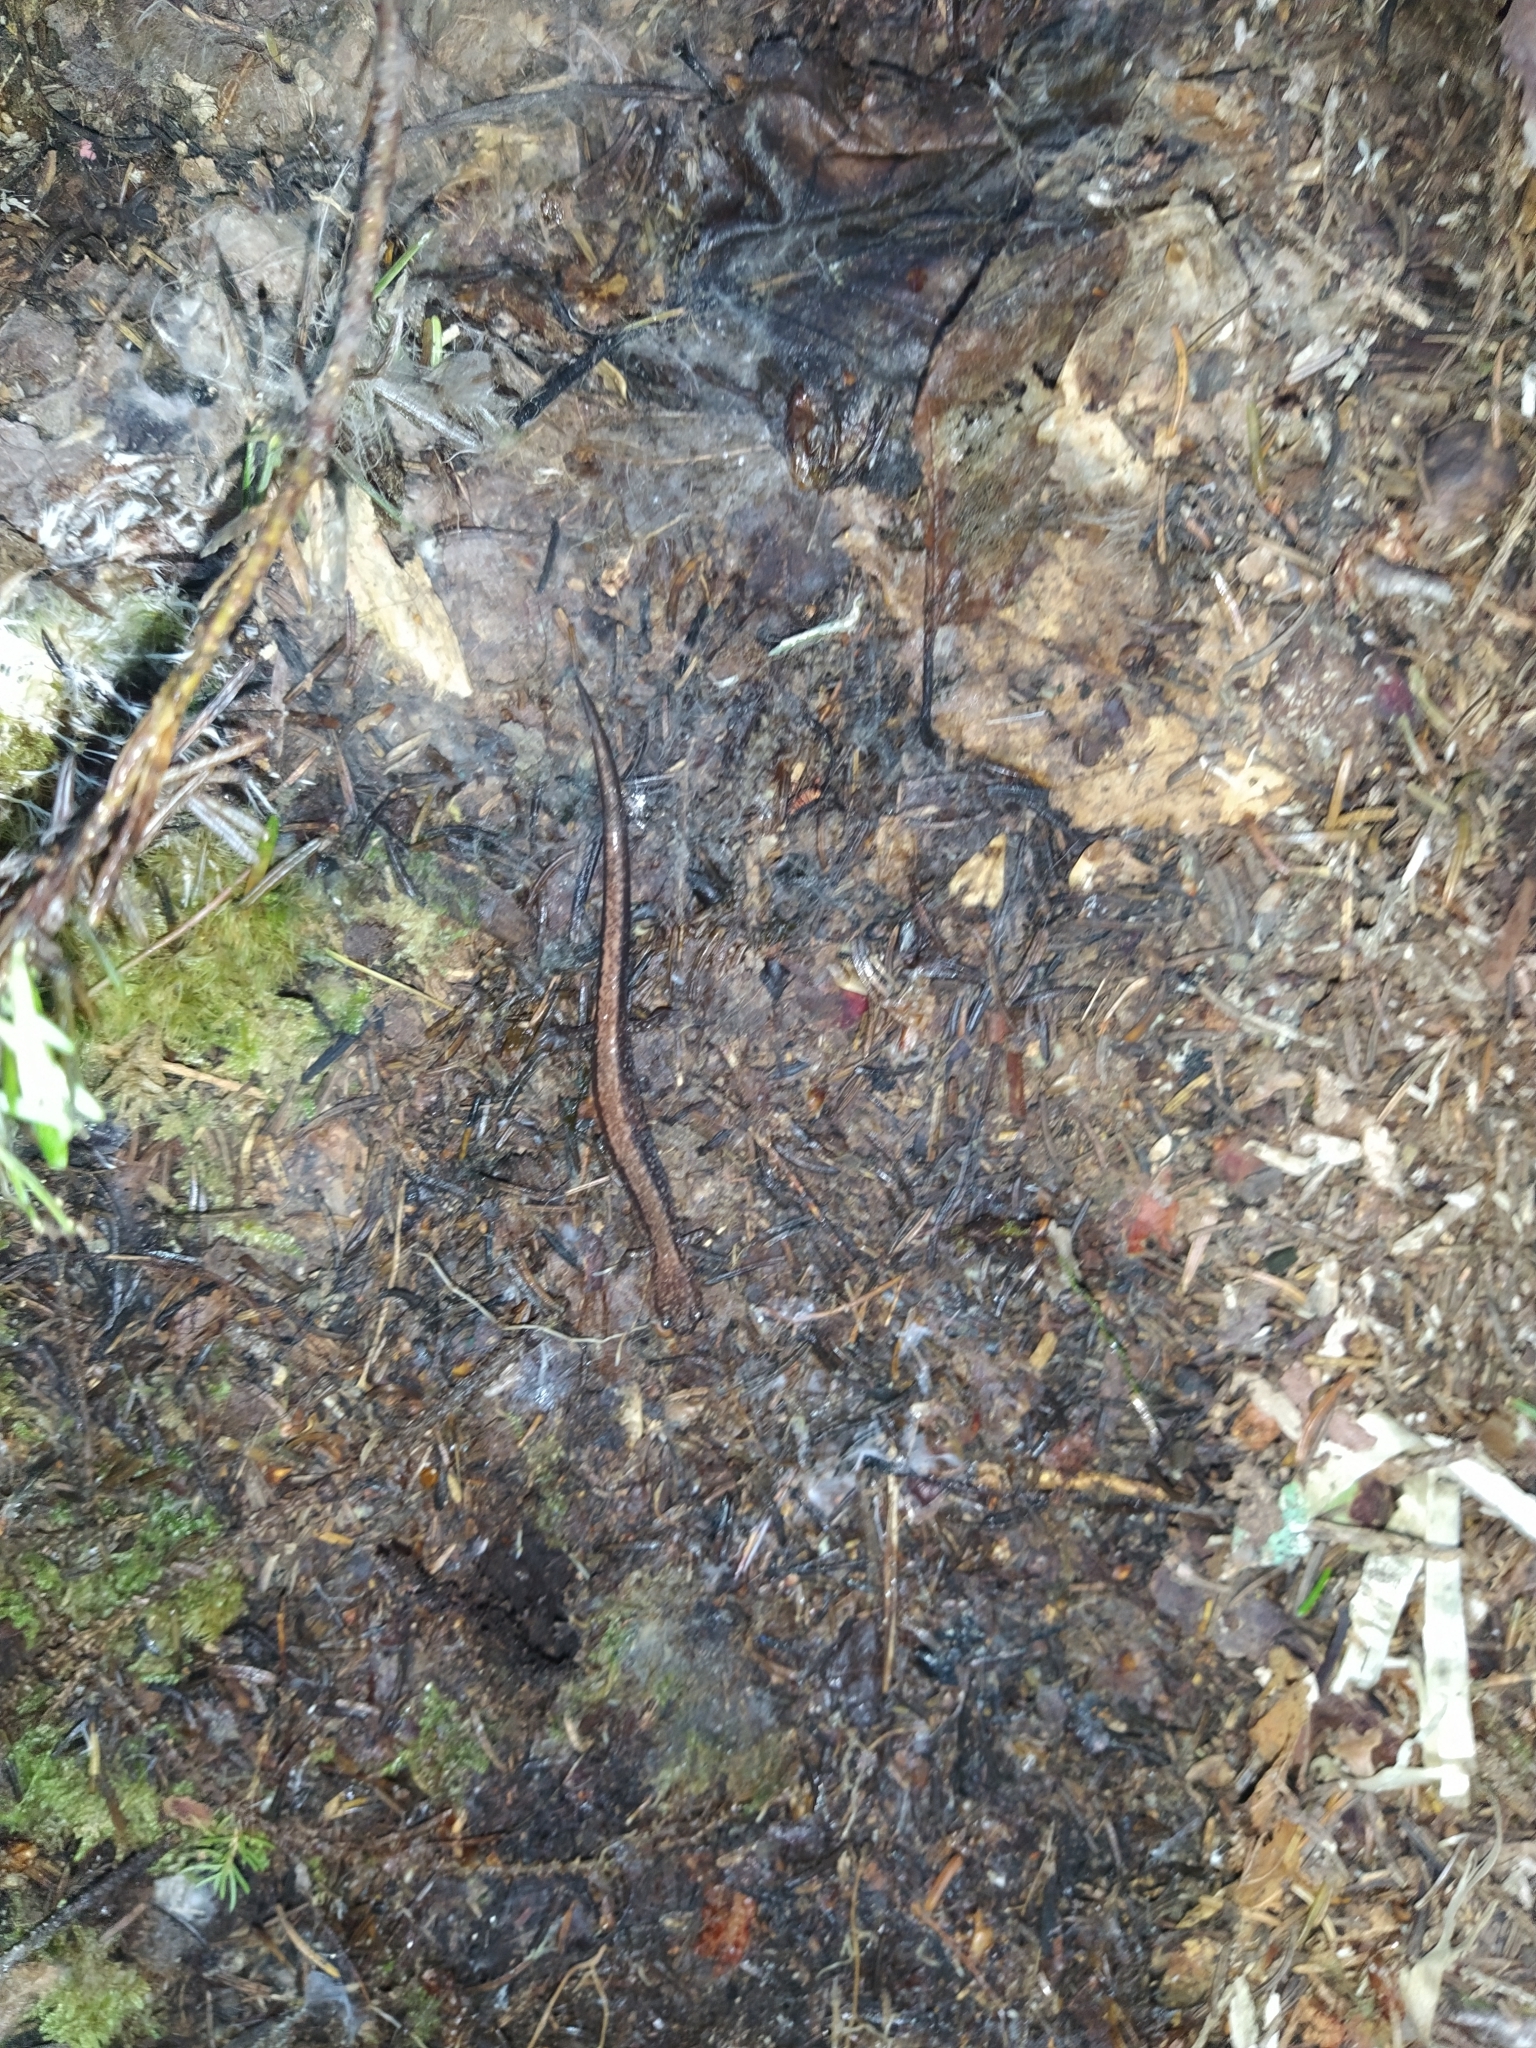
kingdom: Animalia
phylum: Chordata
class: Amphibia
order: Caudata
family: Plethodontidae
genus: Plethodon
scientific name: Plethodon cinereus
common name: Redback salamander
